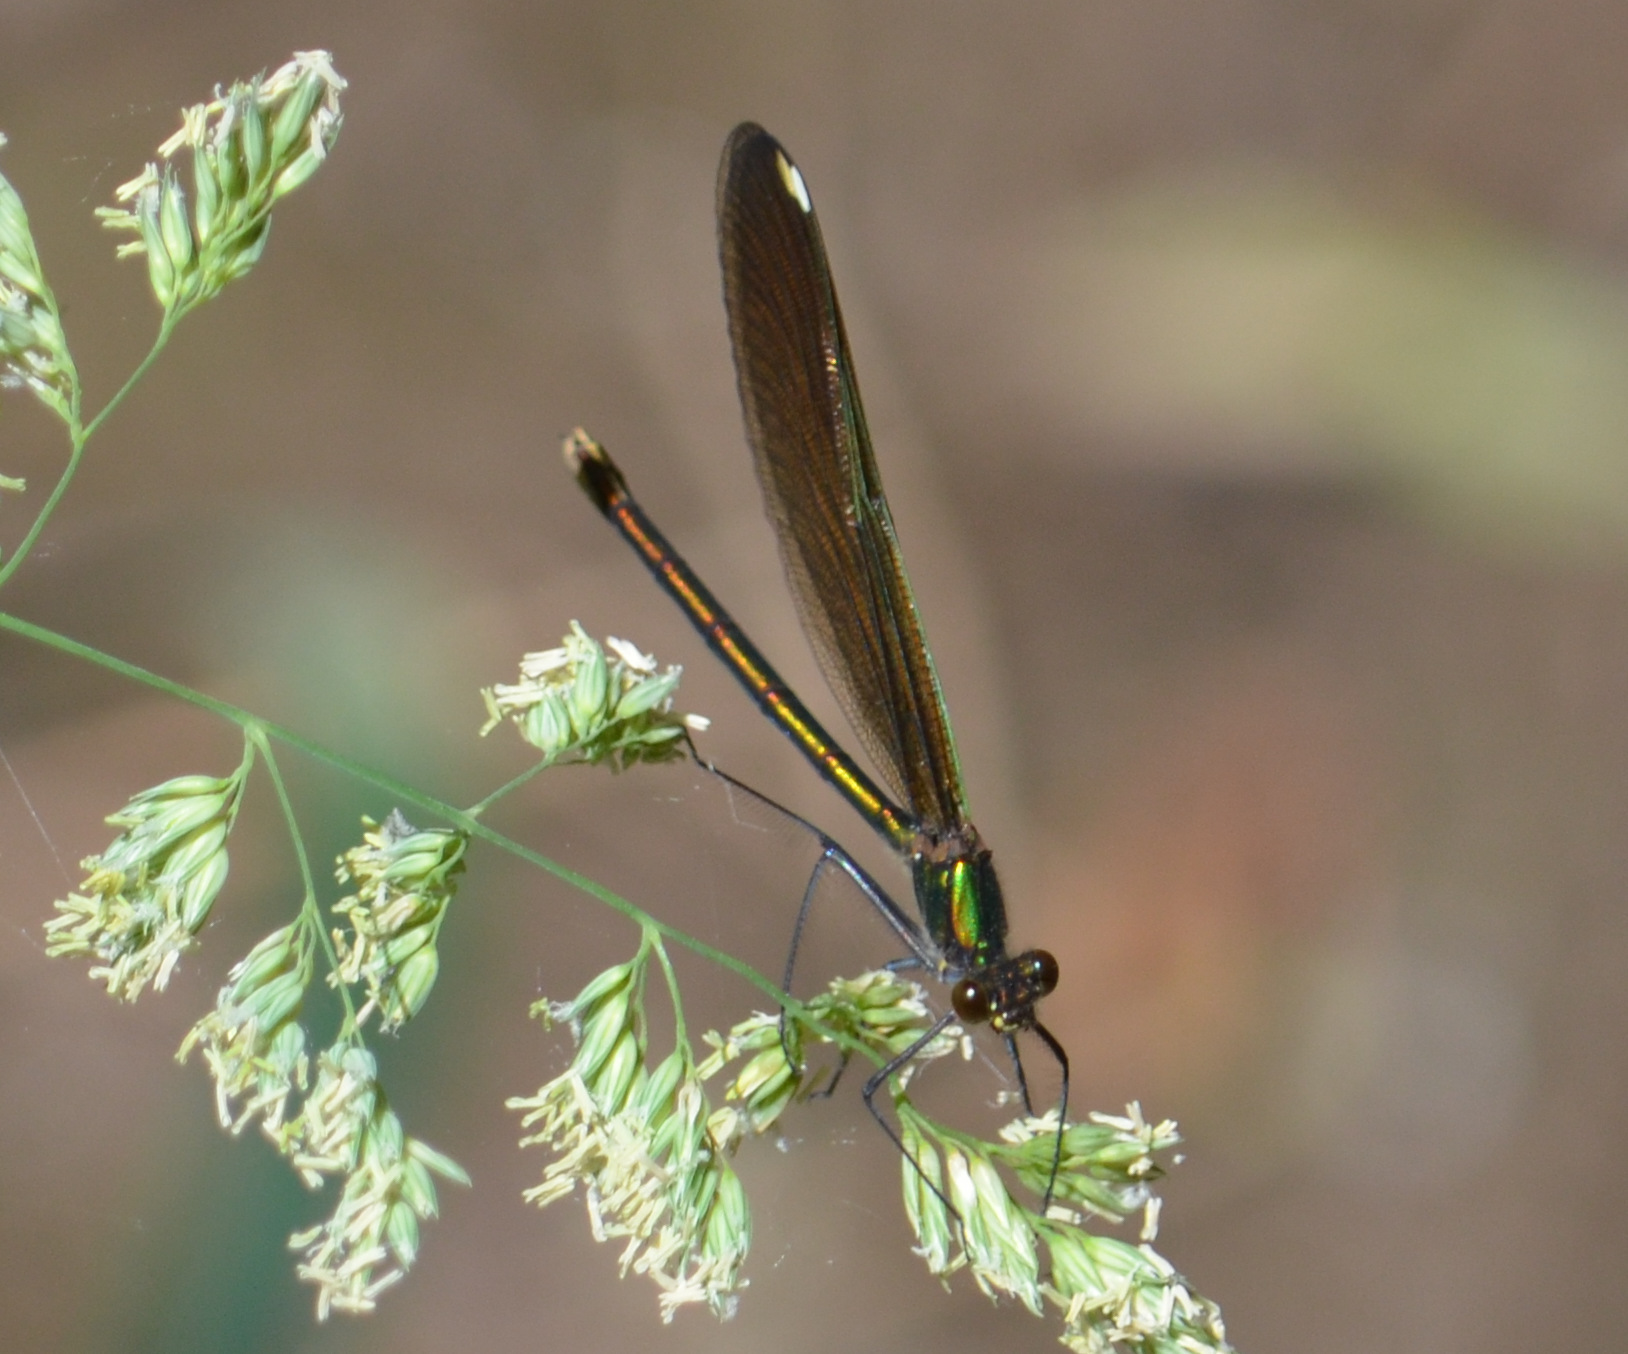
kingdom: Animalia
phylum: Arthropoda
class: Insecta
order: Odonata
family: Calopterygidae
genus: Calopteryx
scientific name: Calopteryx aequabilis
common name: River jewelwing
